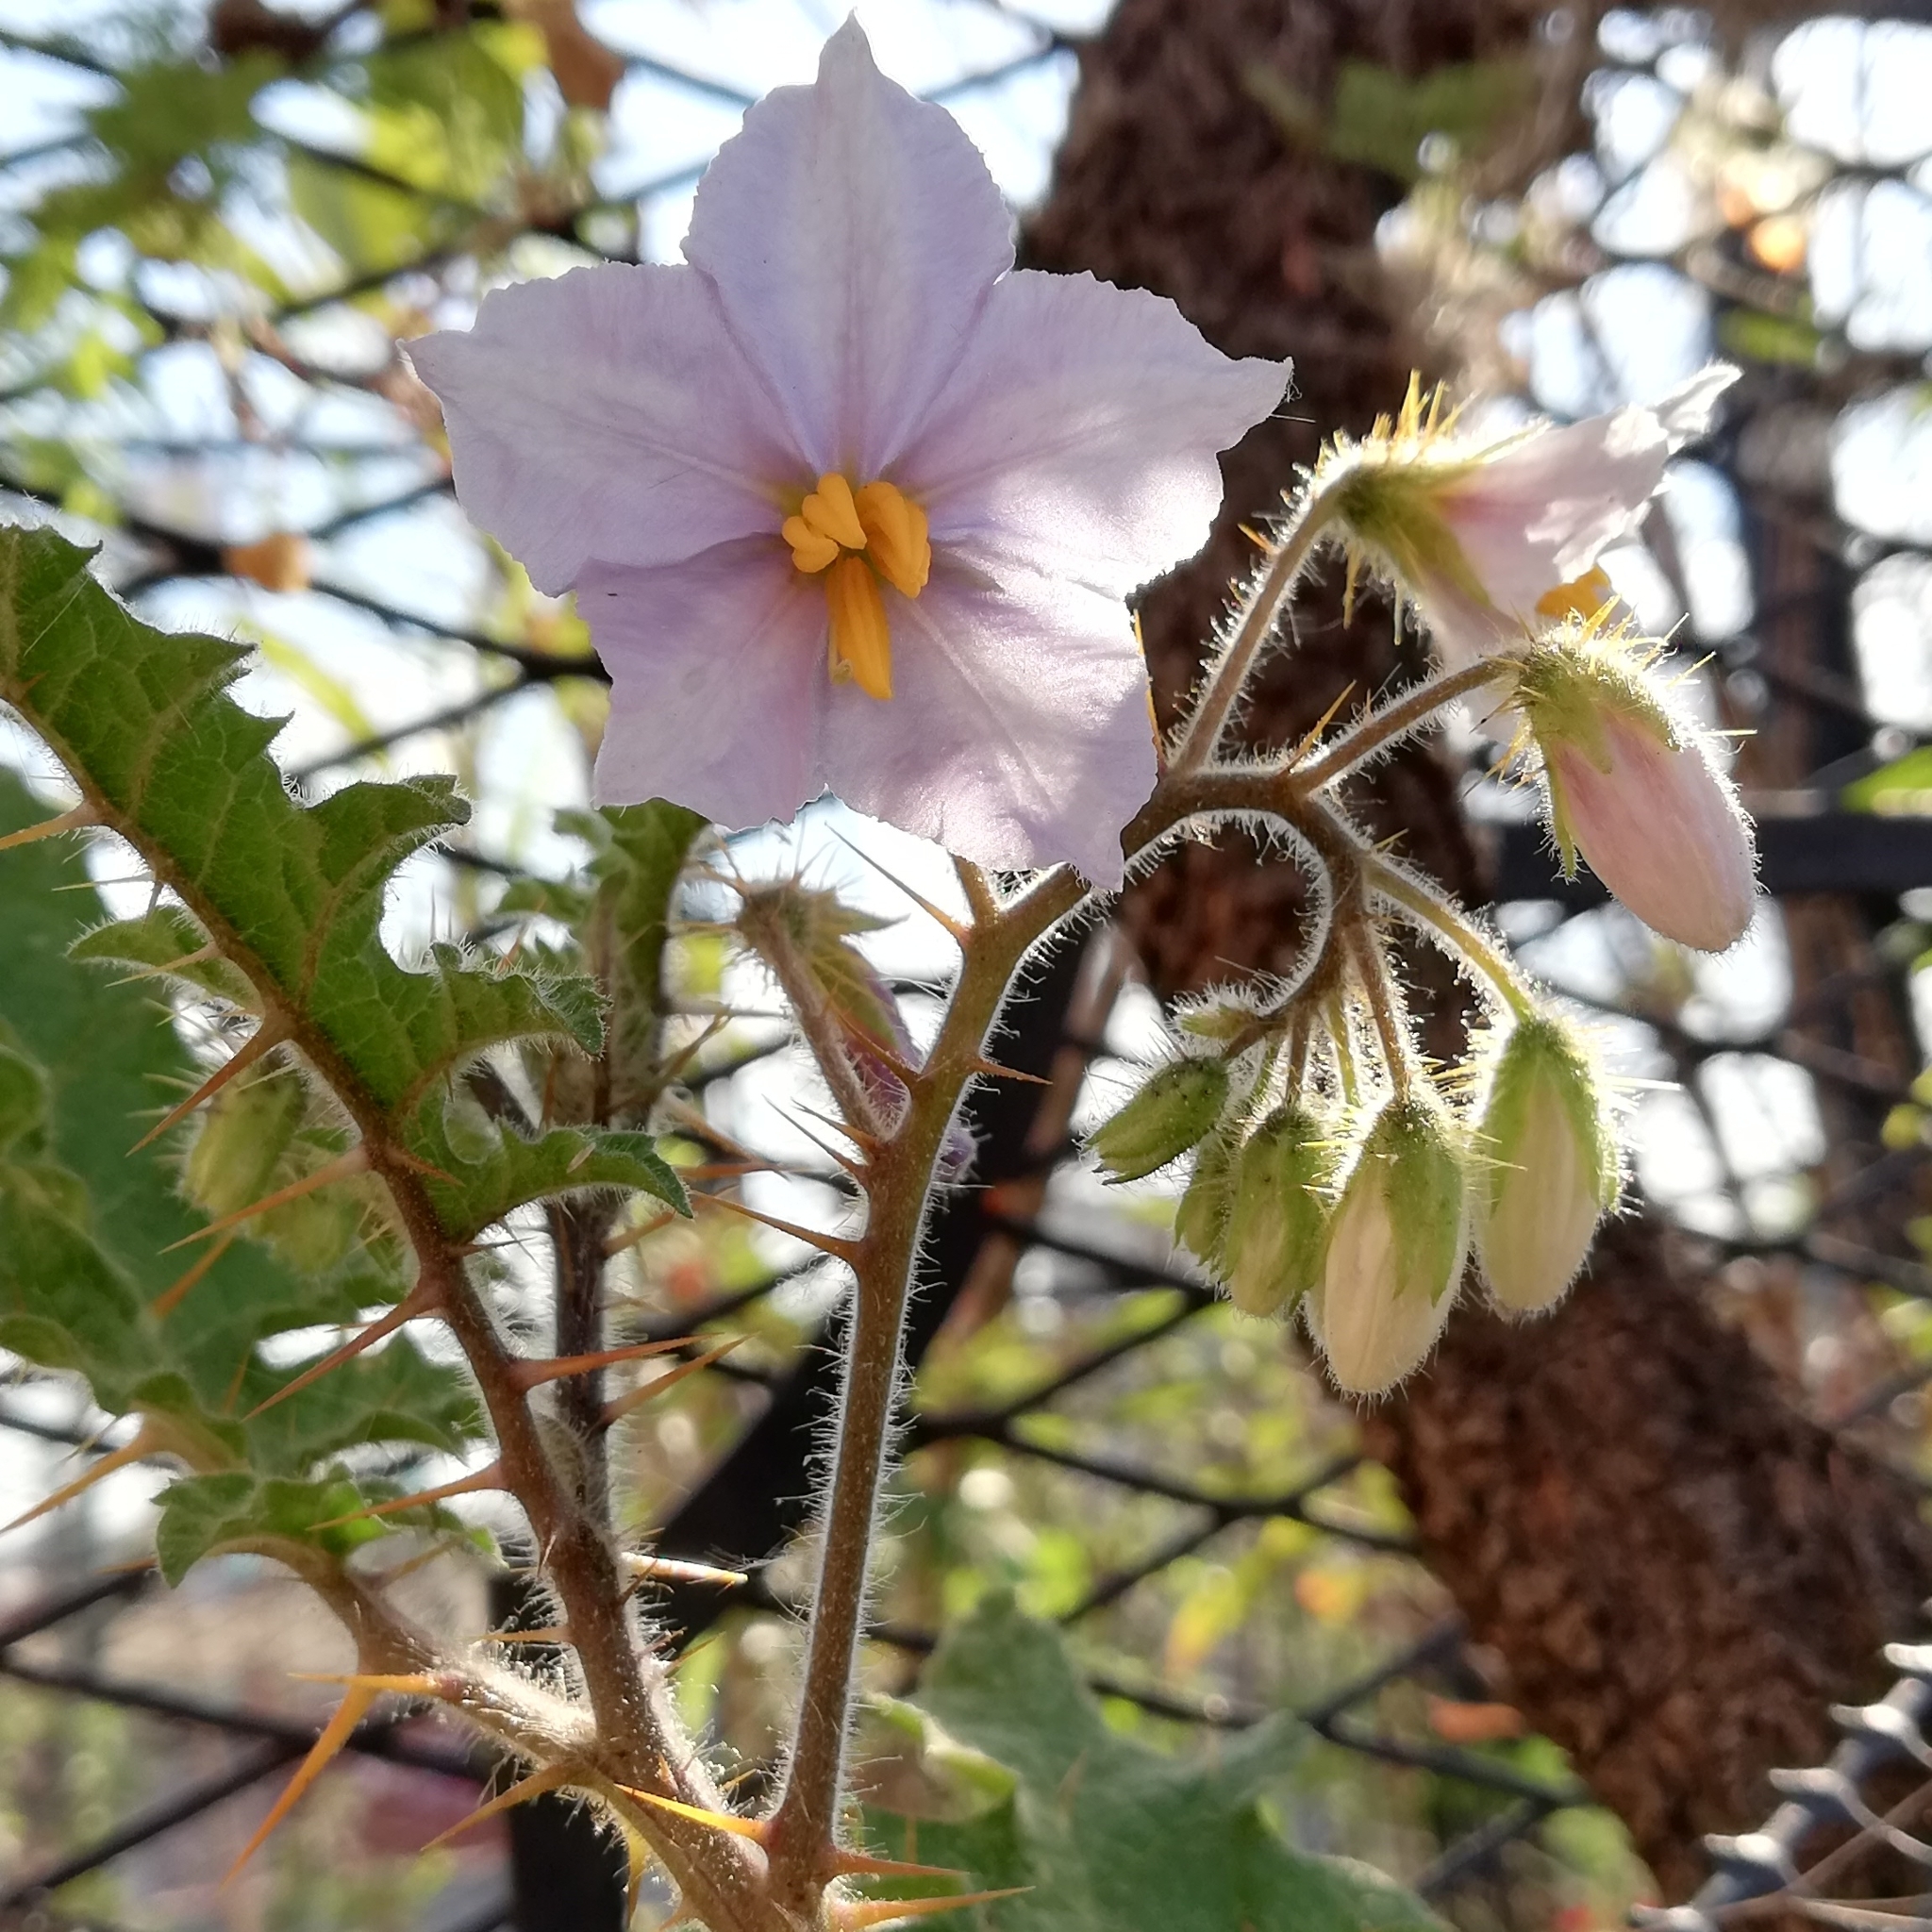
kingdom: Plantae
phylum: Tracheophyta
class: Magnoliopsida
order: Solanales
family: Solanaceae
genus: Solanum
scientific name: Solanum sisymbriifolium
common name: Red buffalo-bur
